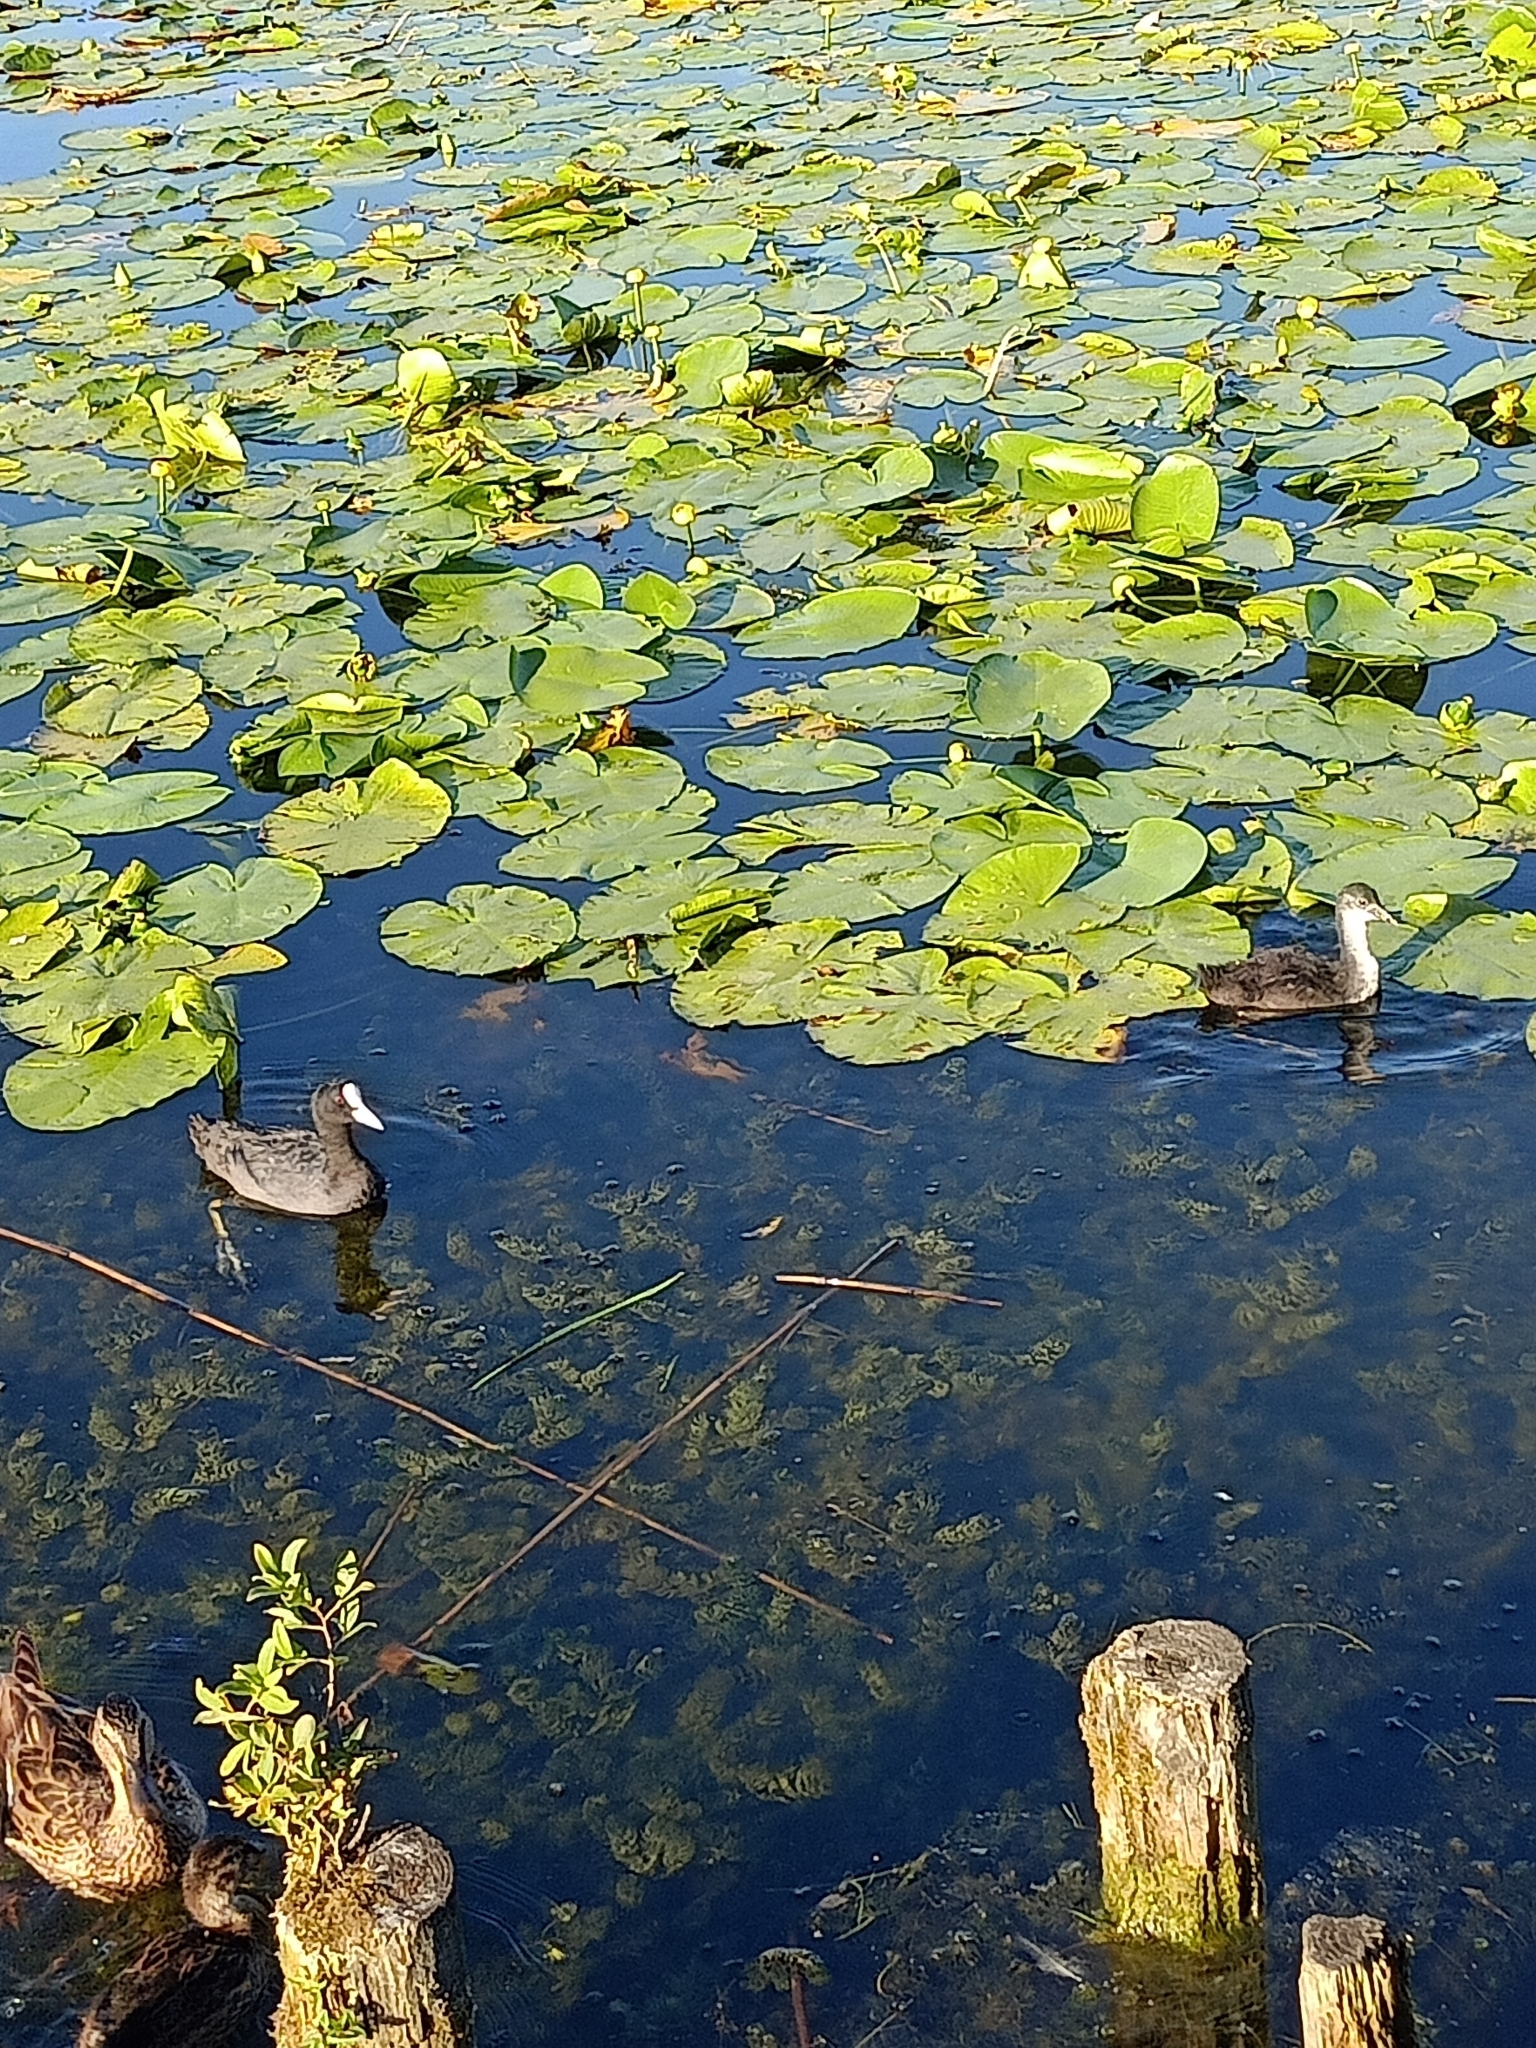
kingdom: Animalia
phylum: Chordata
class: Aves
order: Gruiformes
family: Rallidae
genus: Fulica
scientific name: Fulica atra
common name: Eurasian coot
